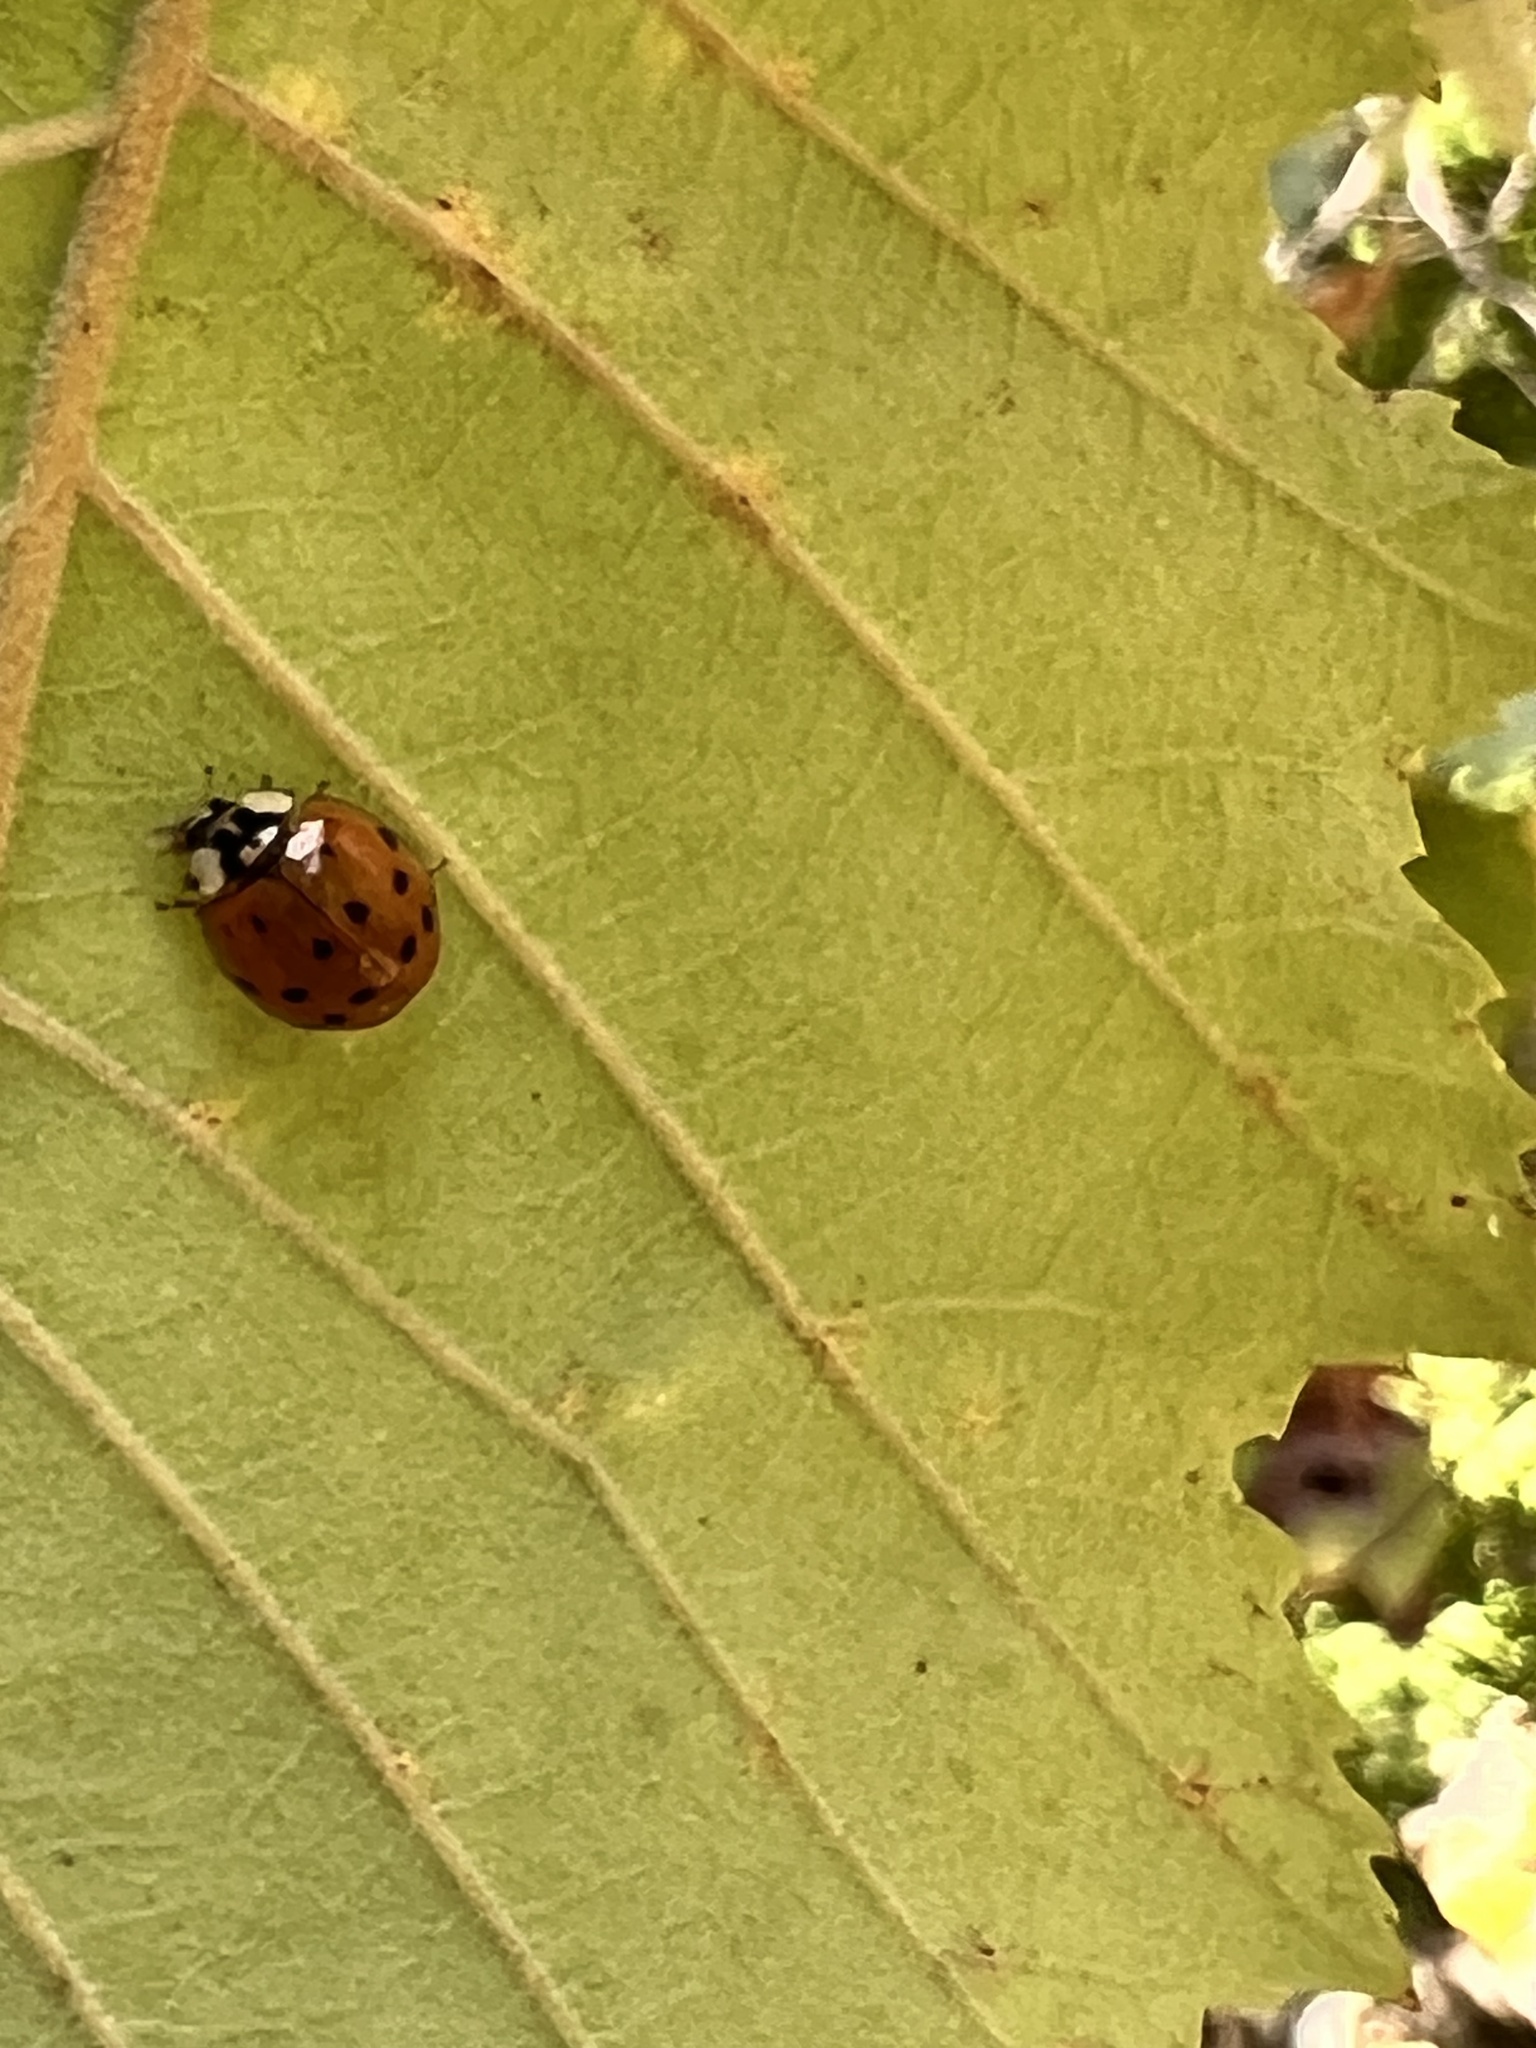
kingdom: Animalia
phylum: Arthropoda
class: Insecta
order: Coleoptera
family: Coccinellidae
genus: Harmonia
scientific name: Harmonia axyridis
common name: Harlequin ladybird
